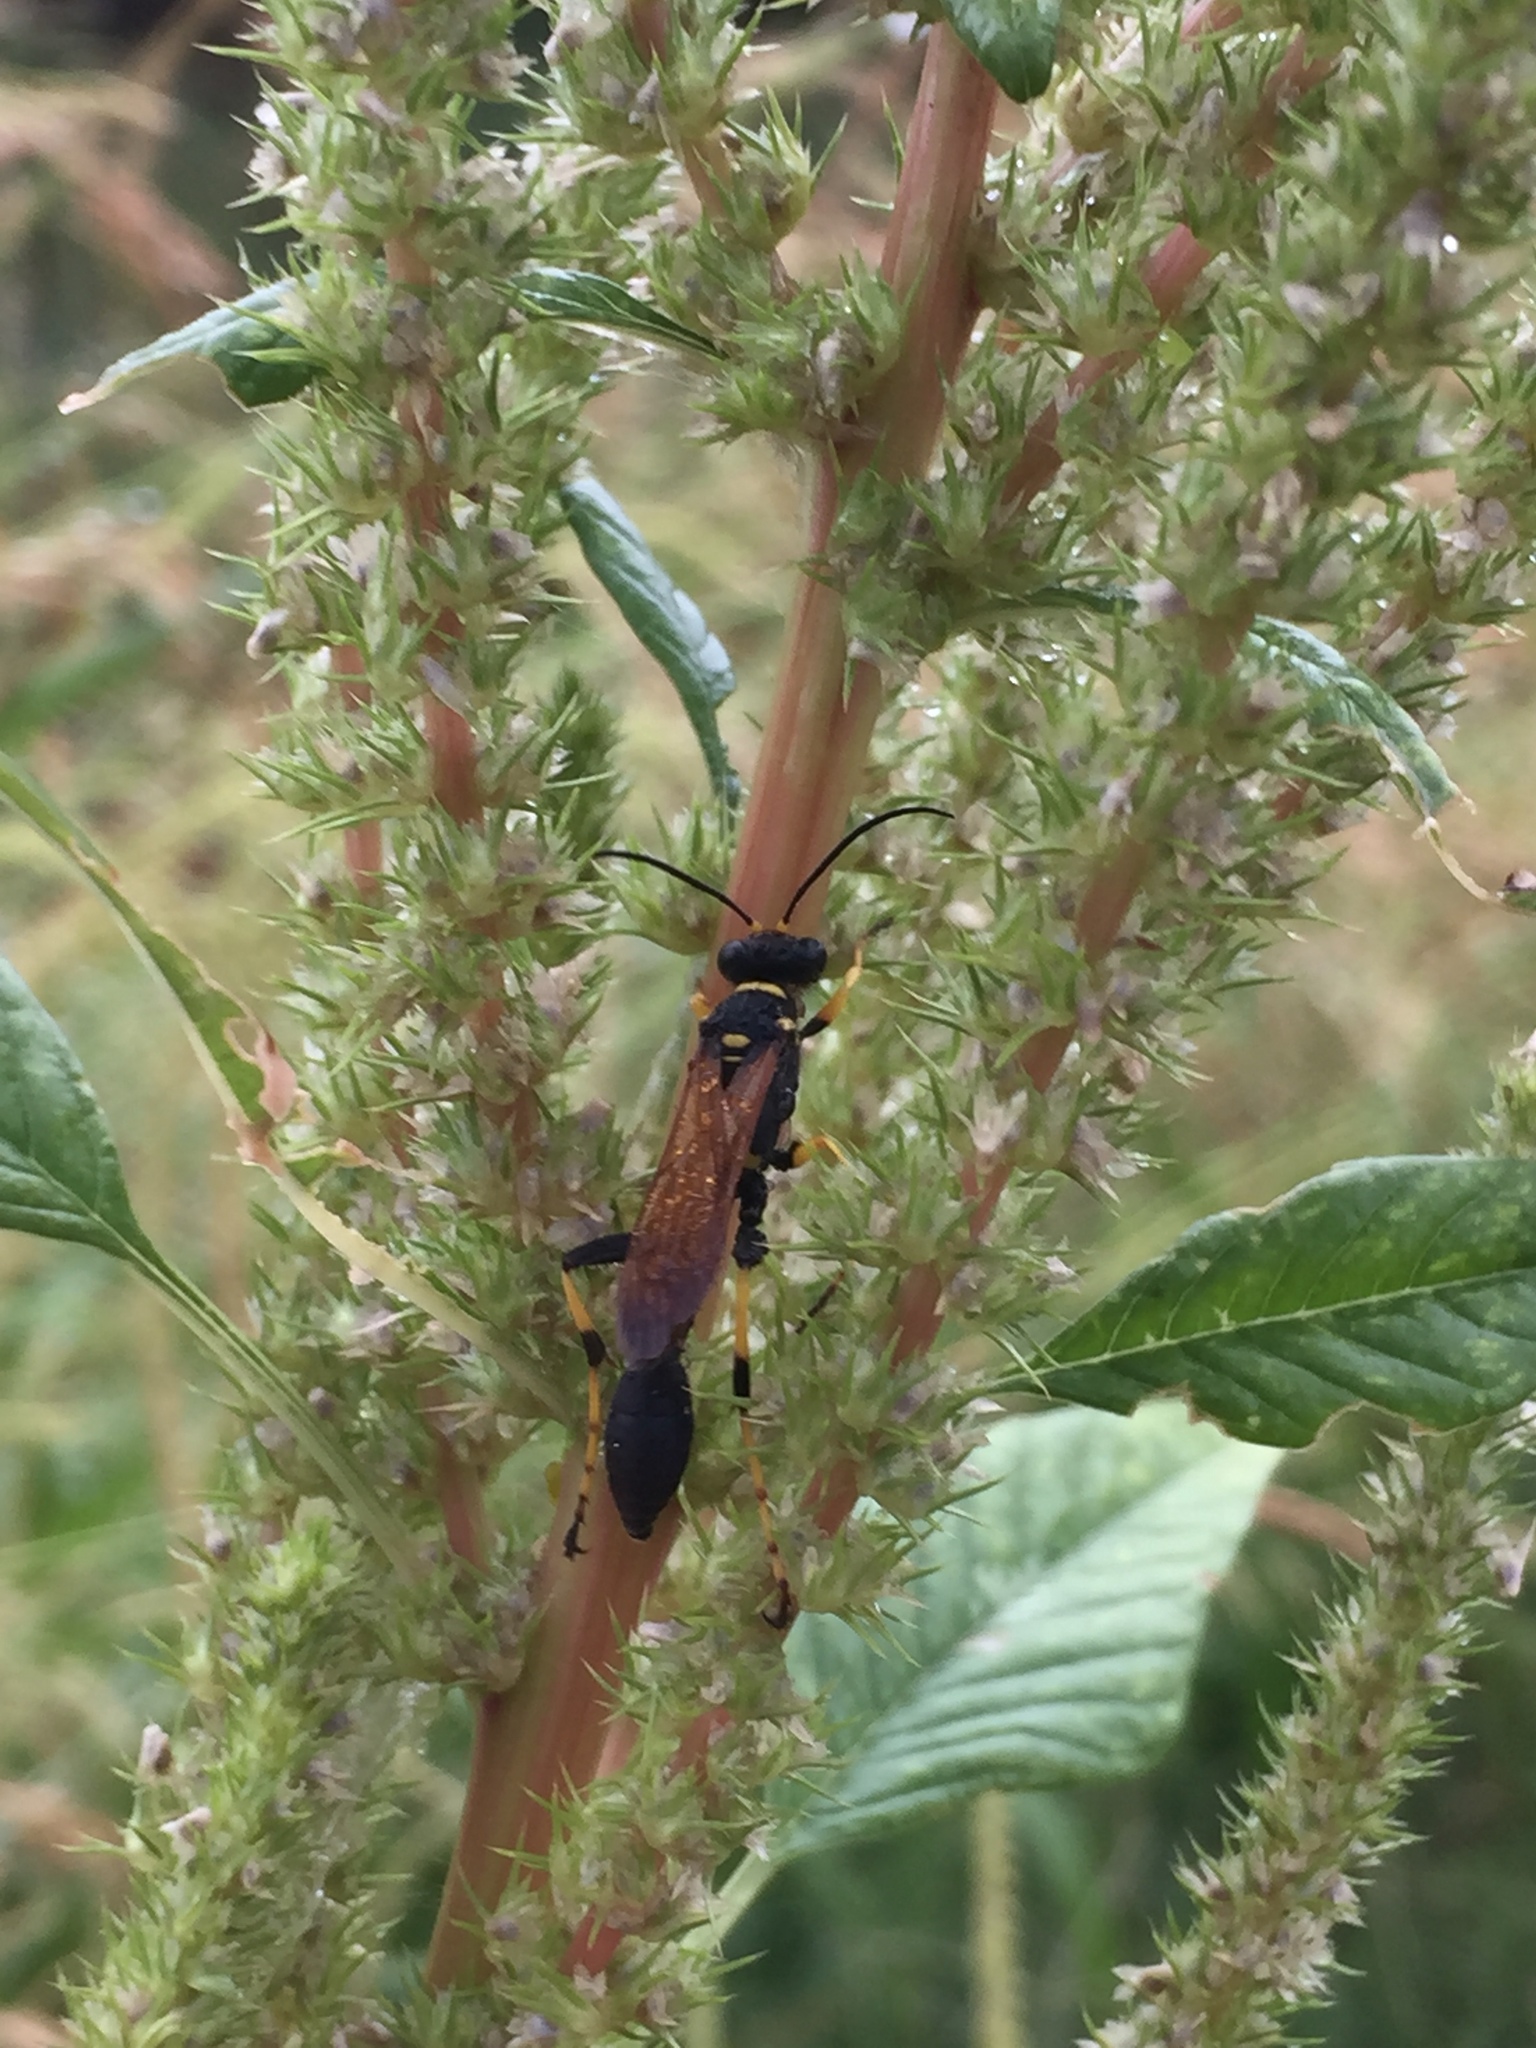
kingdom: Animalia
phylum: Arthropoda
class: Insecta
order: Hymenoptera
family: Sphecidae
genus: Sceliphron
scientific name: Sceliphron caementarium
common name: Mud dauber
